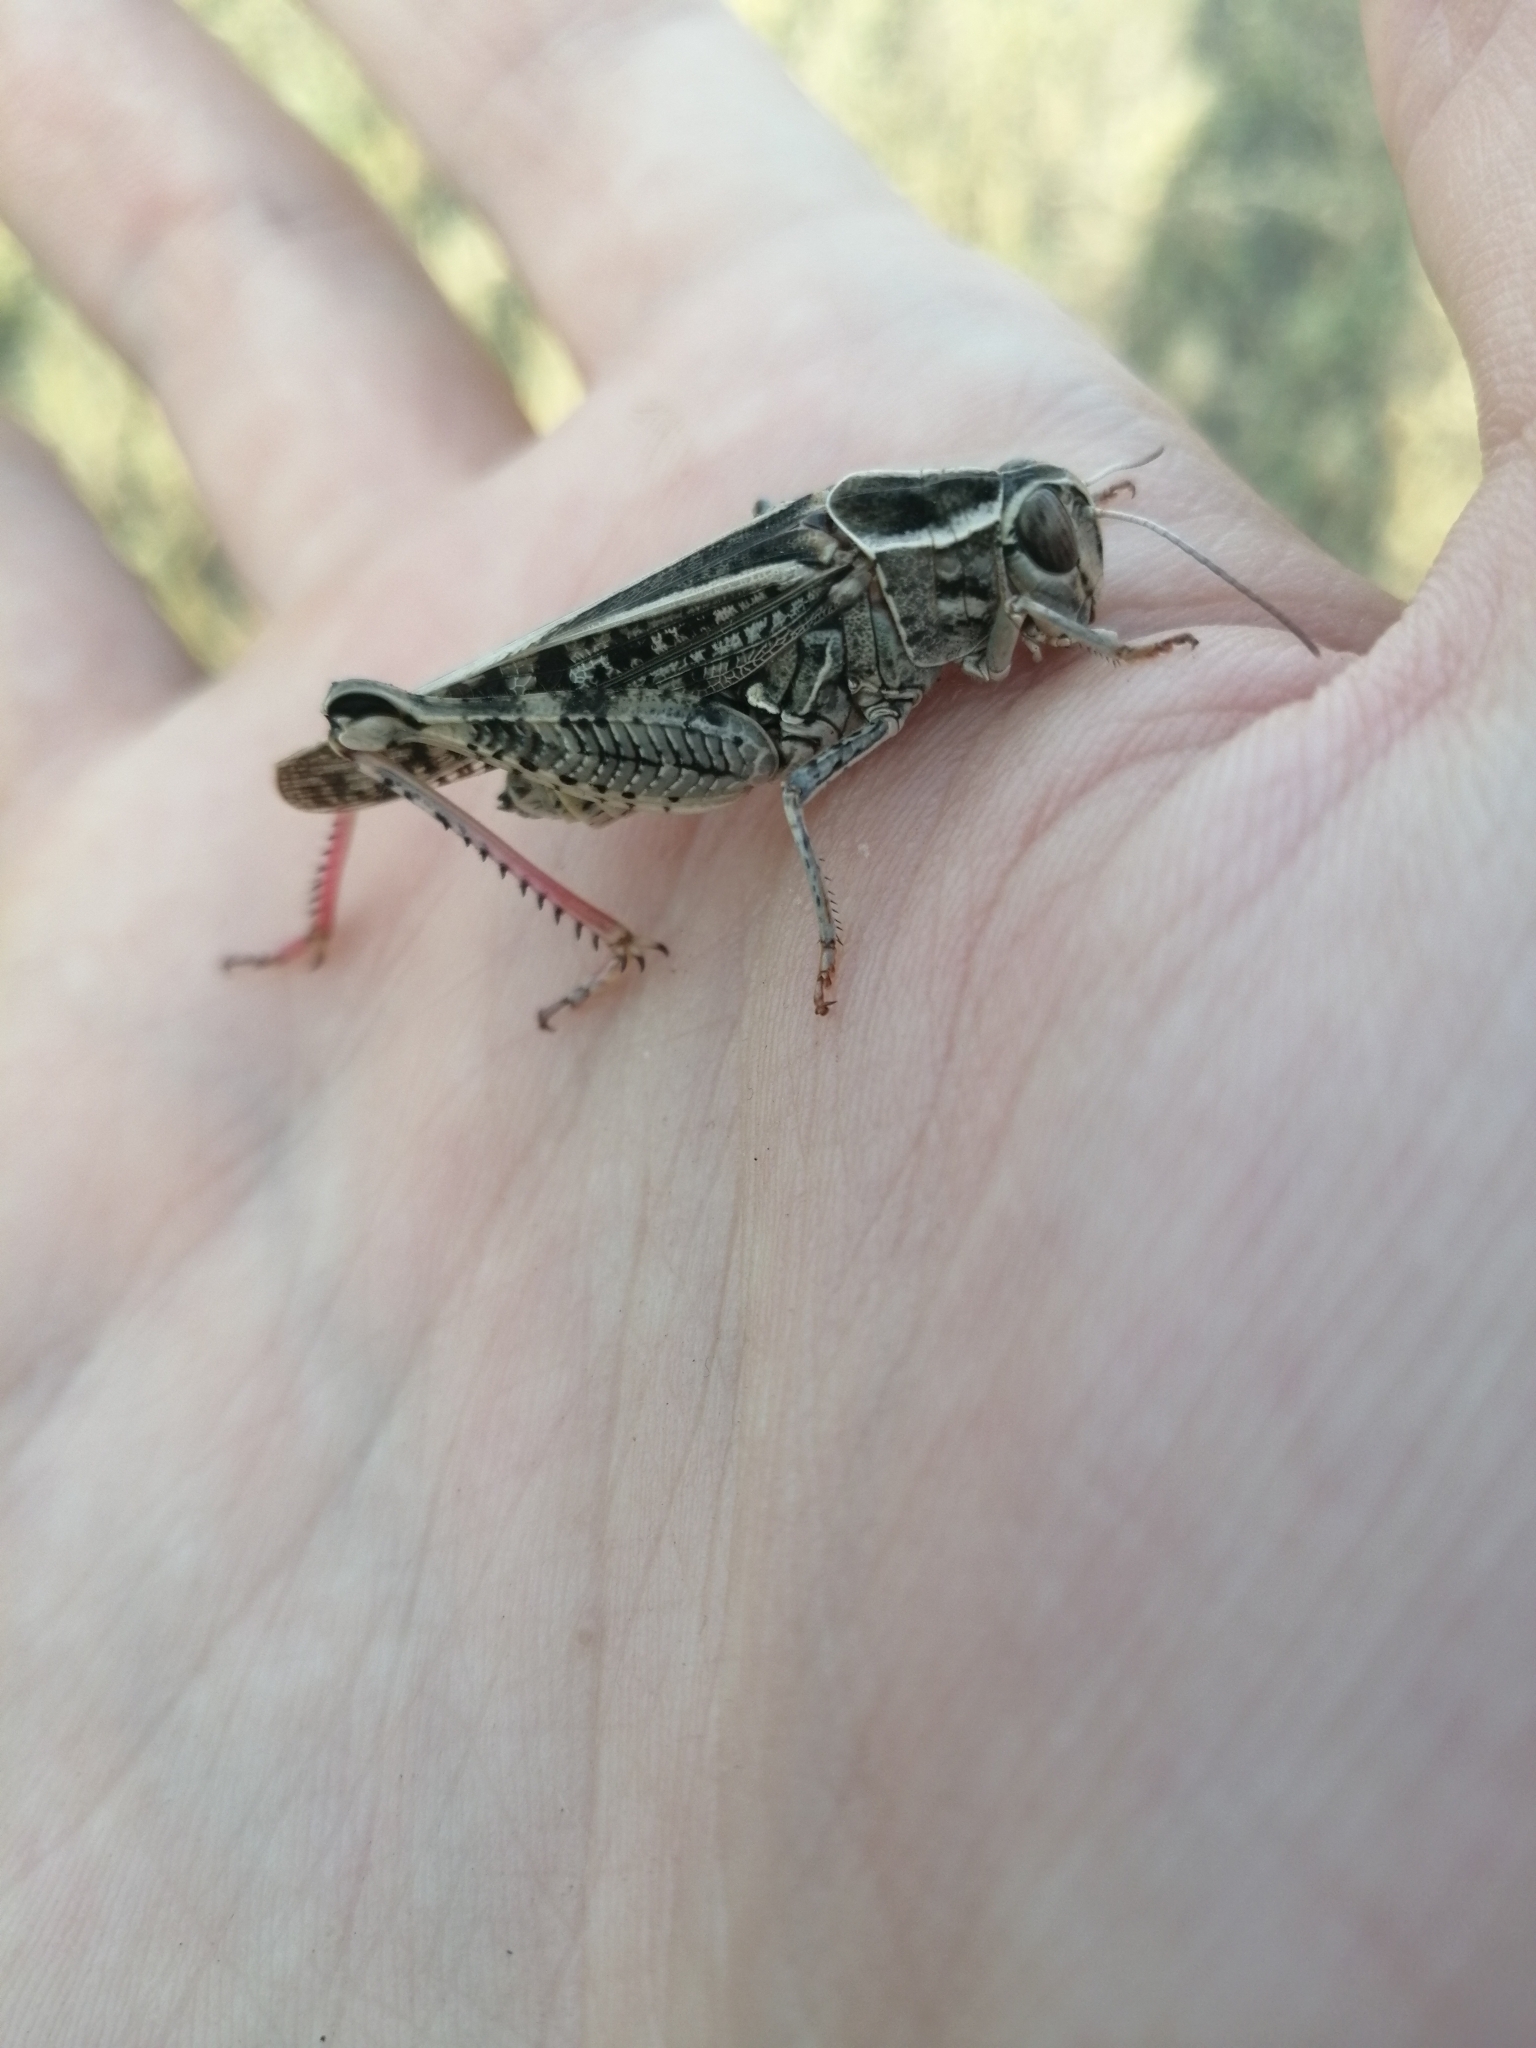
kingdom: Animalia
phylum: Arthropoda
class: Insecta
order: Orthoptera
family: Acrididae
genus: Calliptamus
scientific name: Calliptamus italicus
